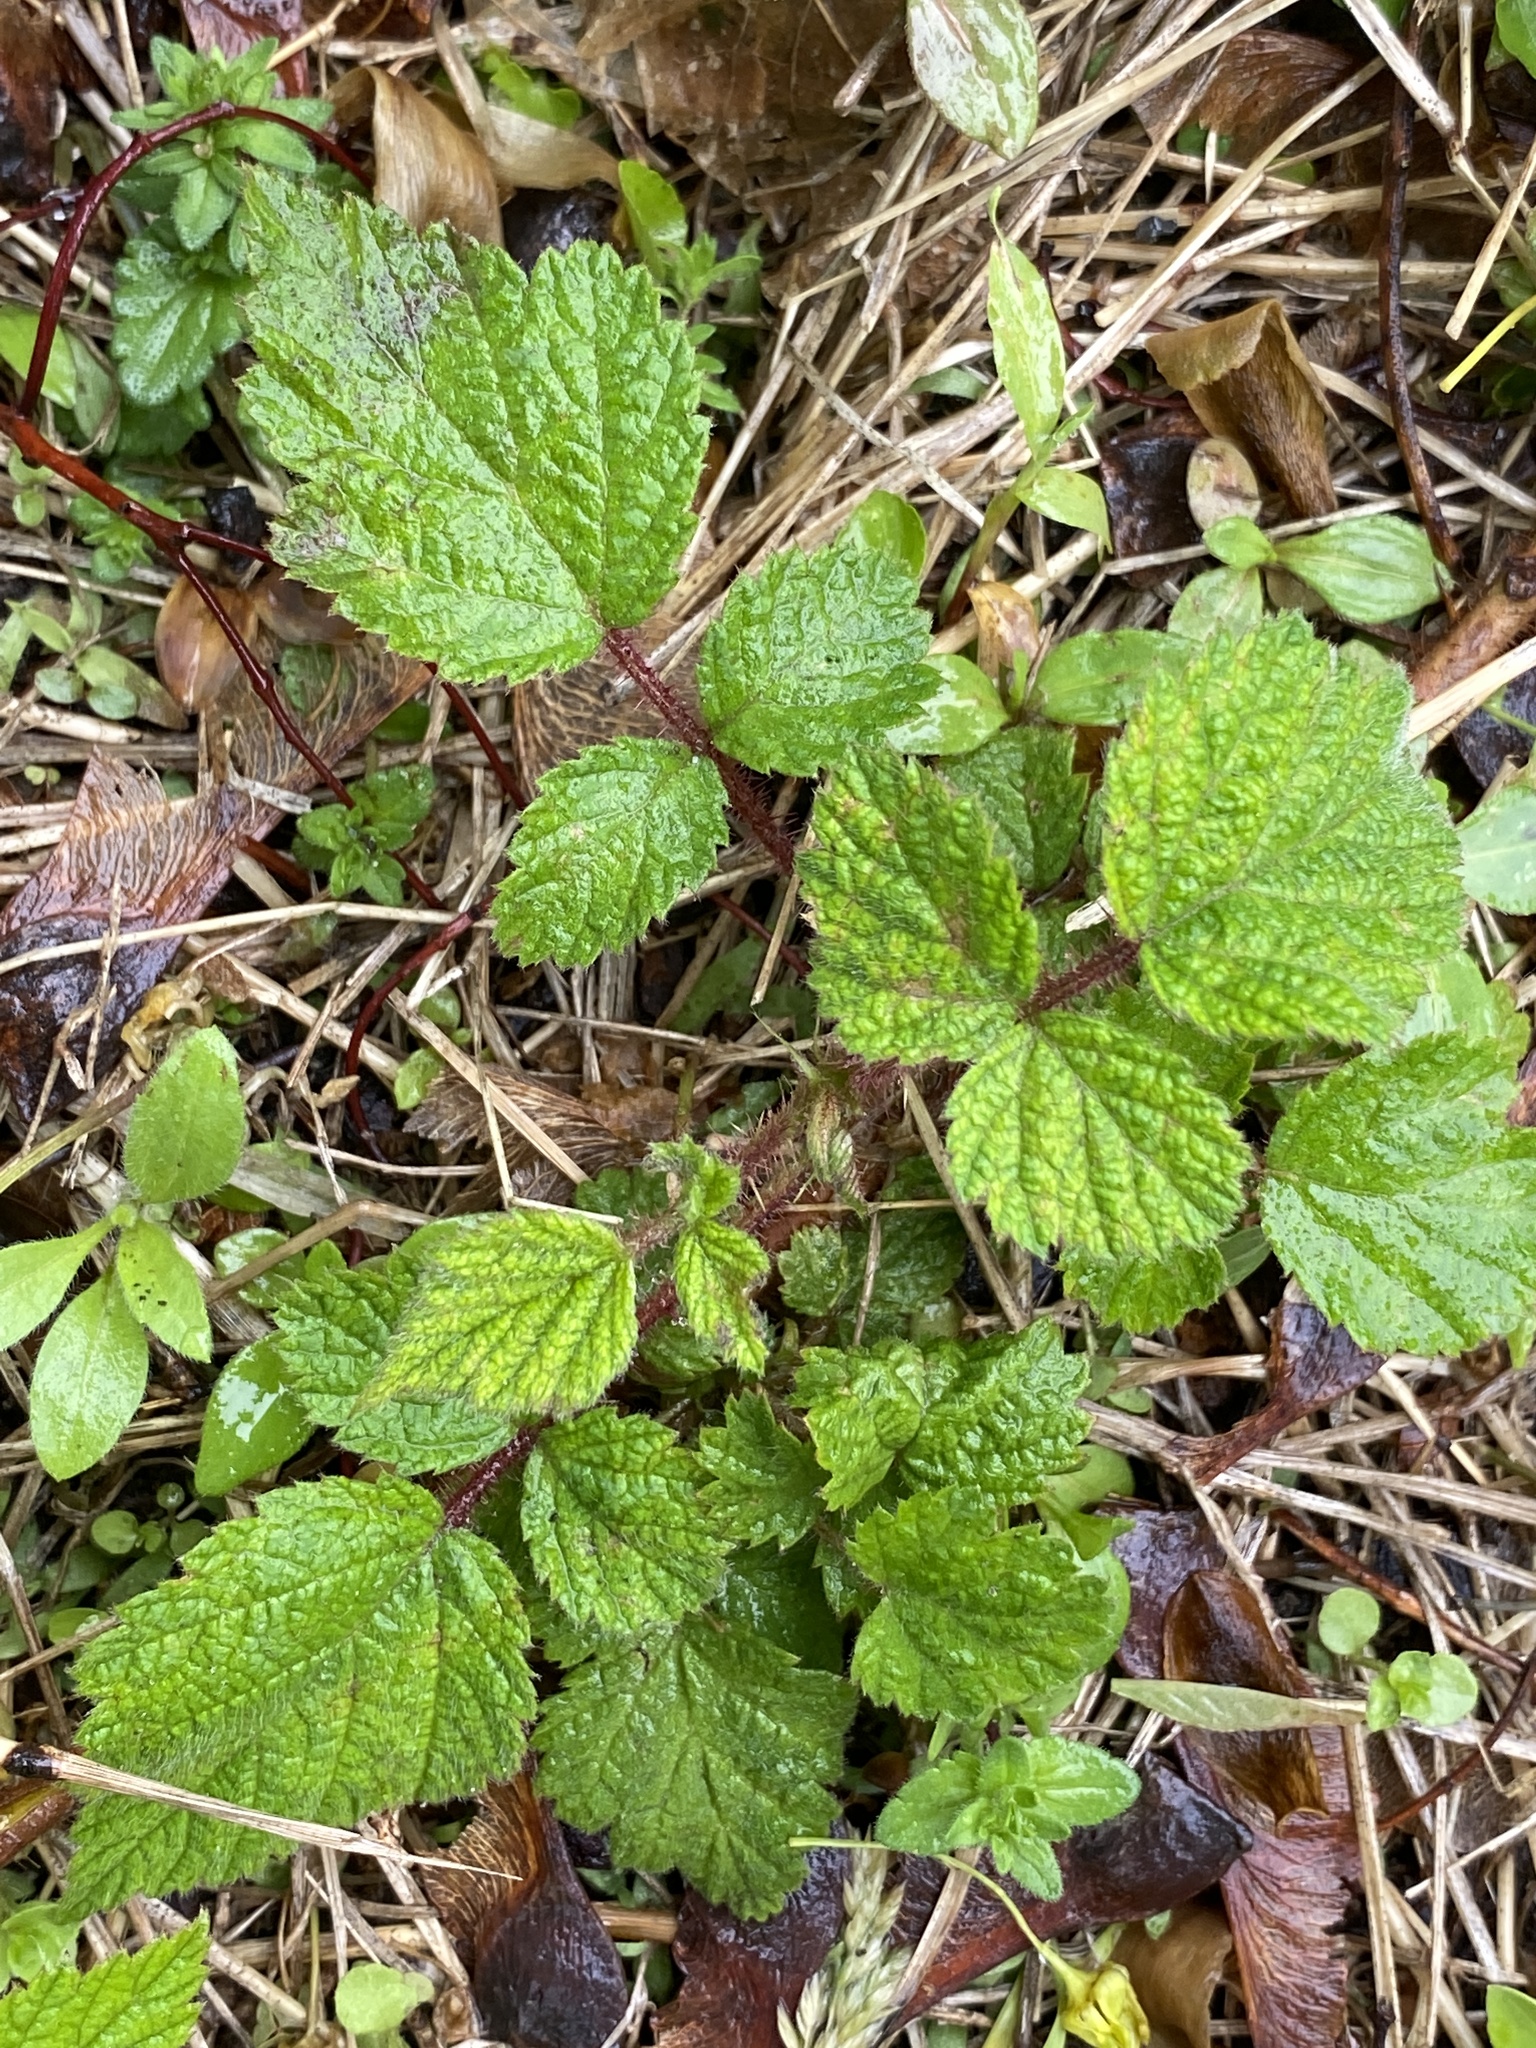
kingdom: Plantae
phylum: Tracheophyta
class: Magnoliopsida
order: Rosales
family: Rosaceae
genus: Rubus
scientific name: Rubus phoenicolasius
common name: Japanese wineberry
